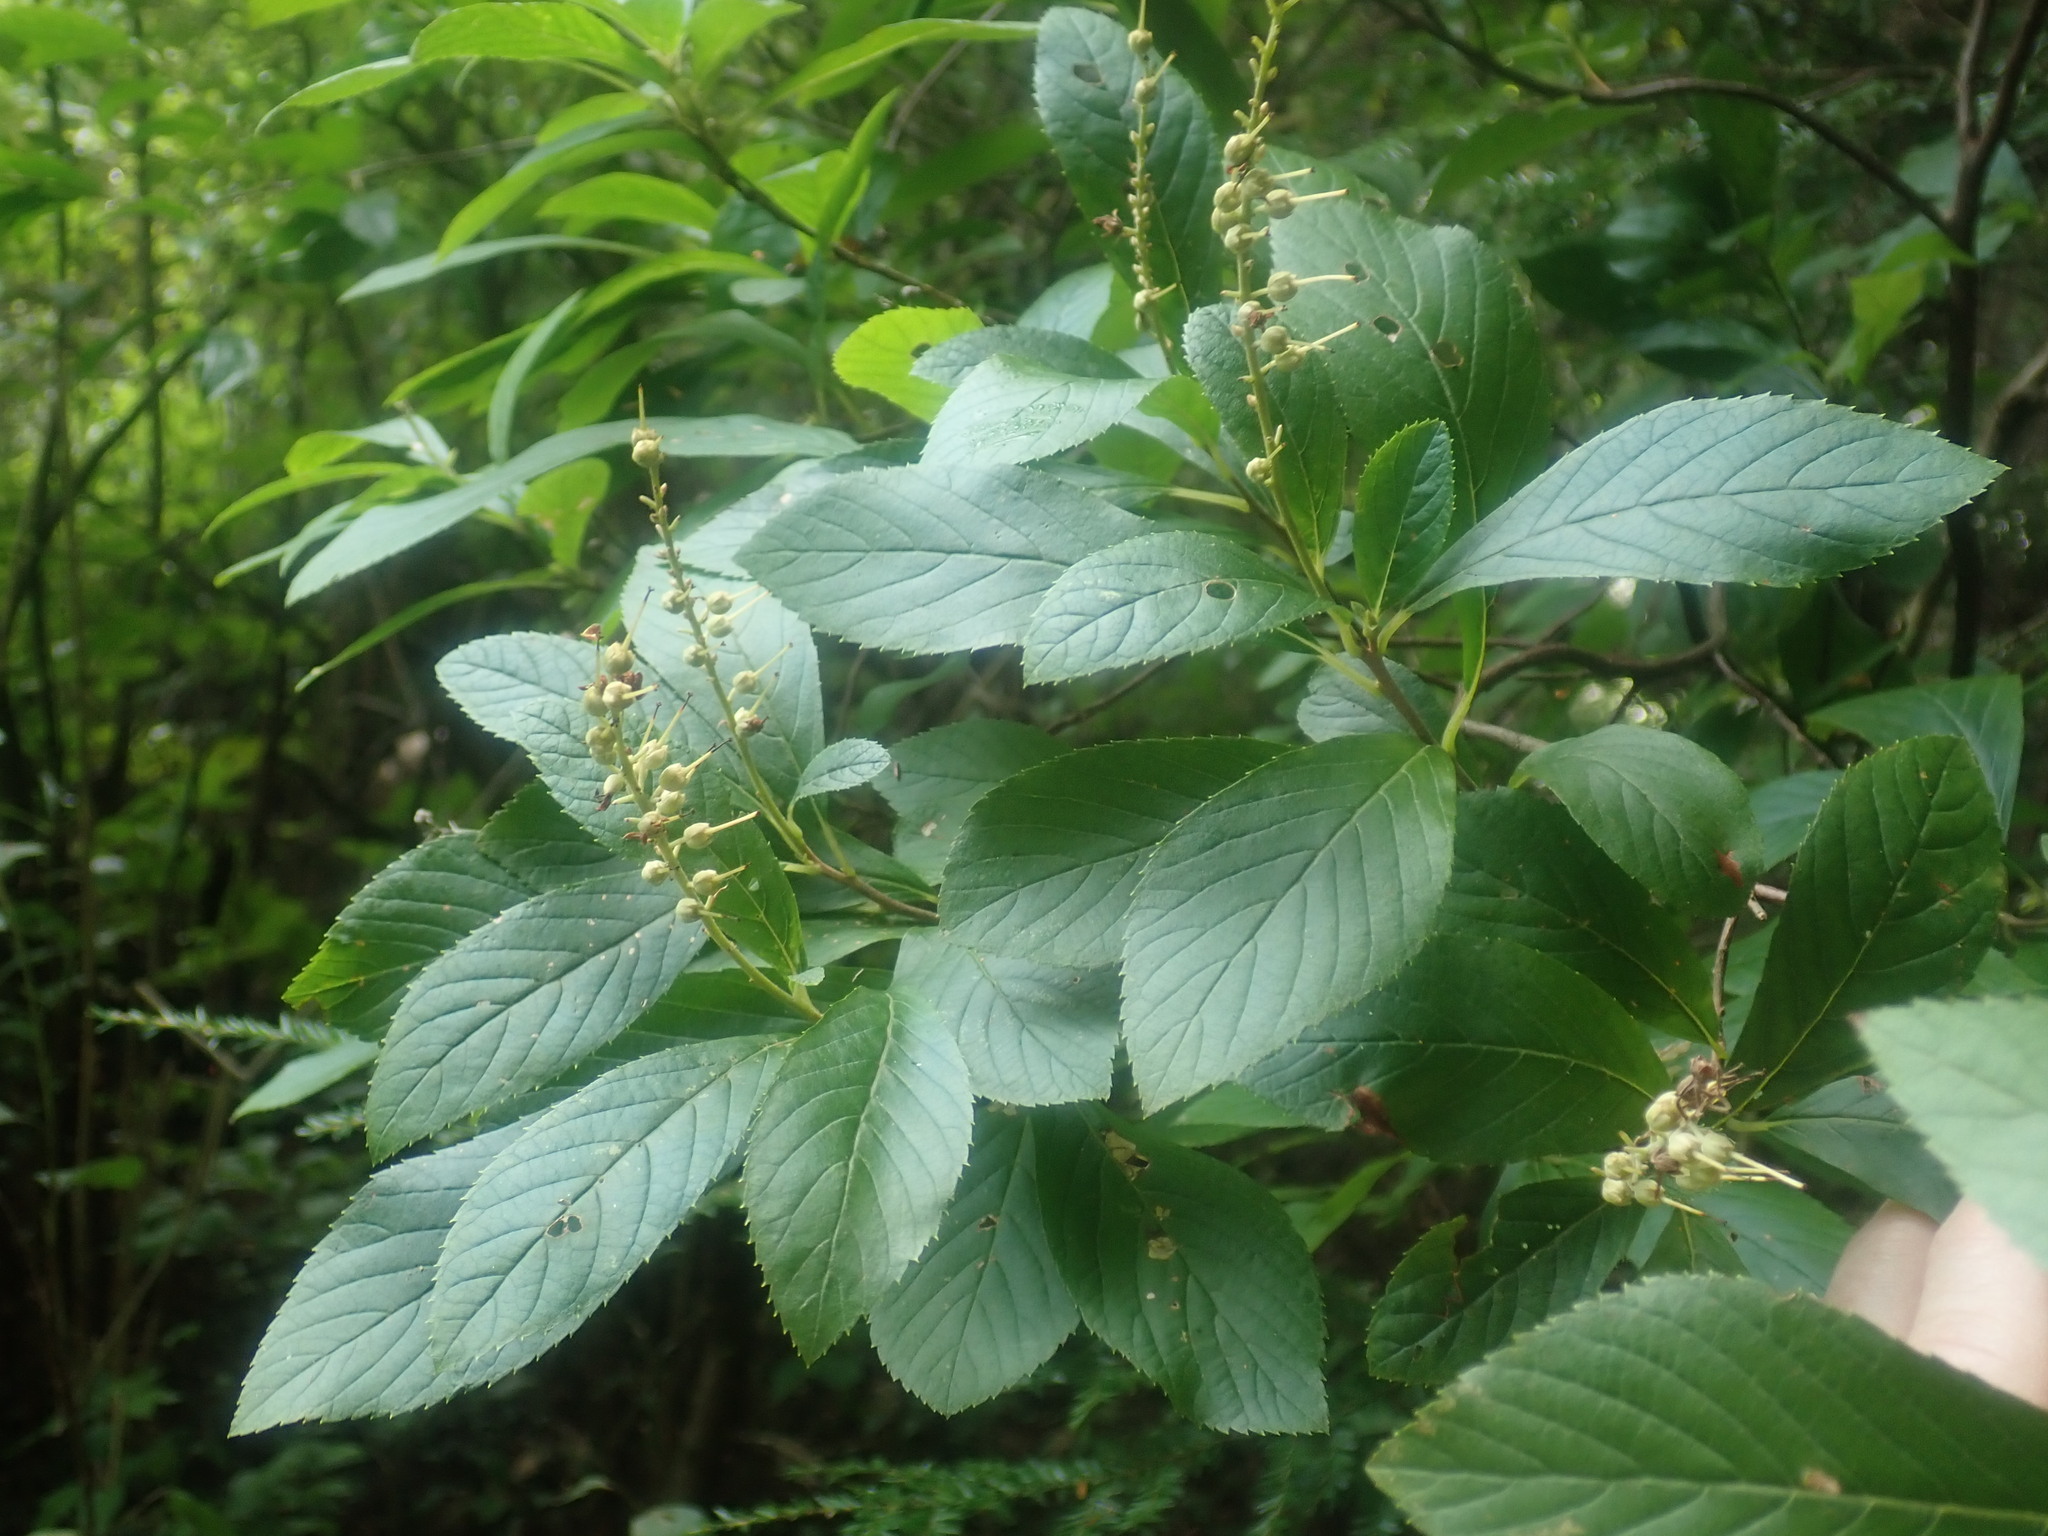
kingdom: Plantae
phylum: Tracheophyta
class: Magnoliopsida
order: Ericales
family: Clethraceae
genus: Clethra
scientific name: Clethra alnifolia
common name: Sweet pepperbush
